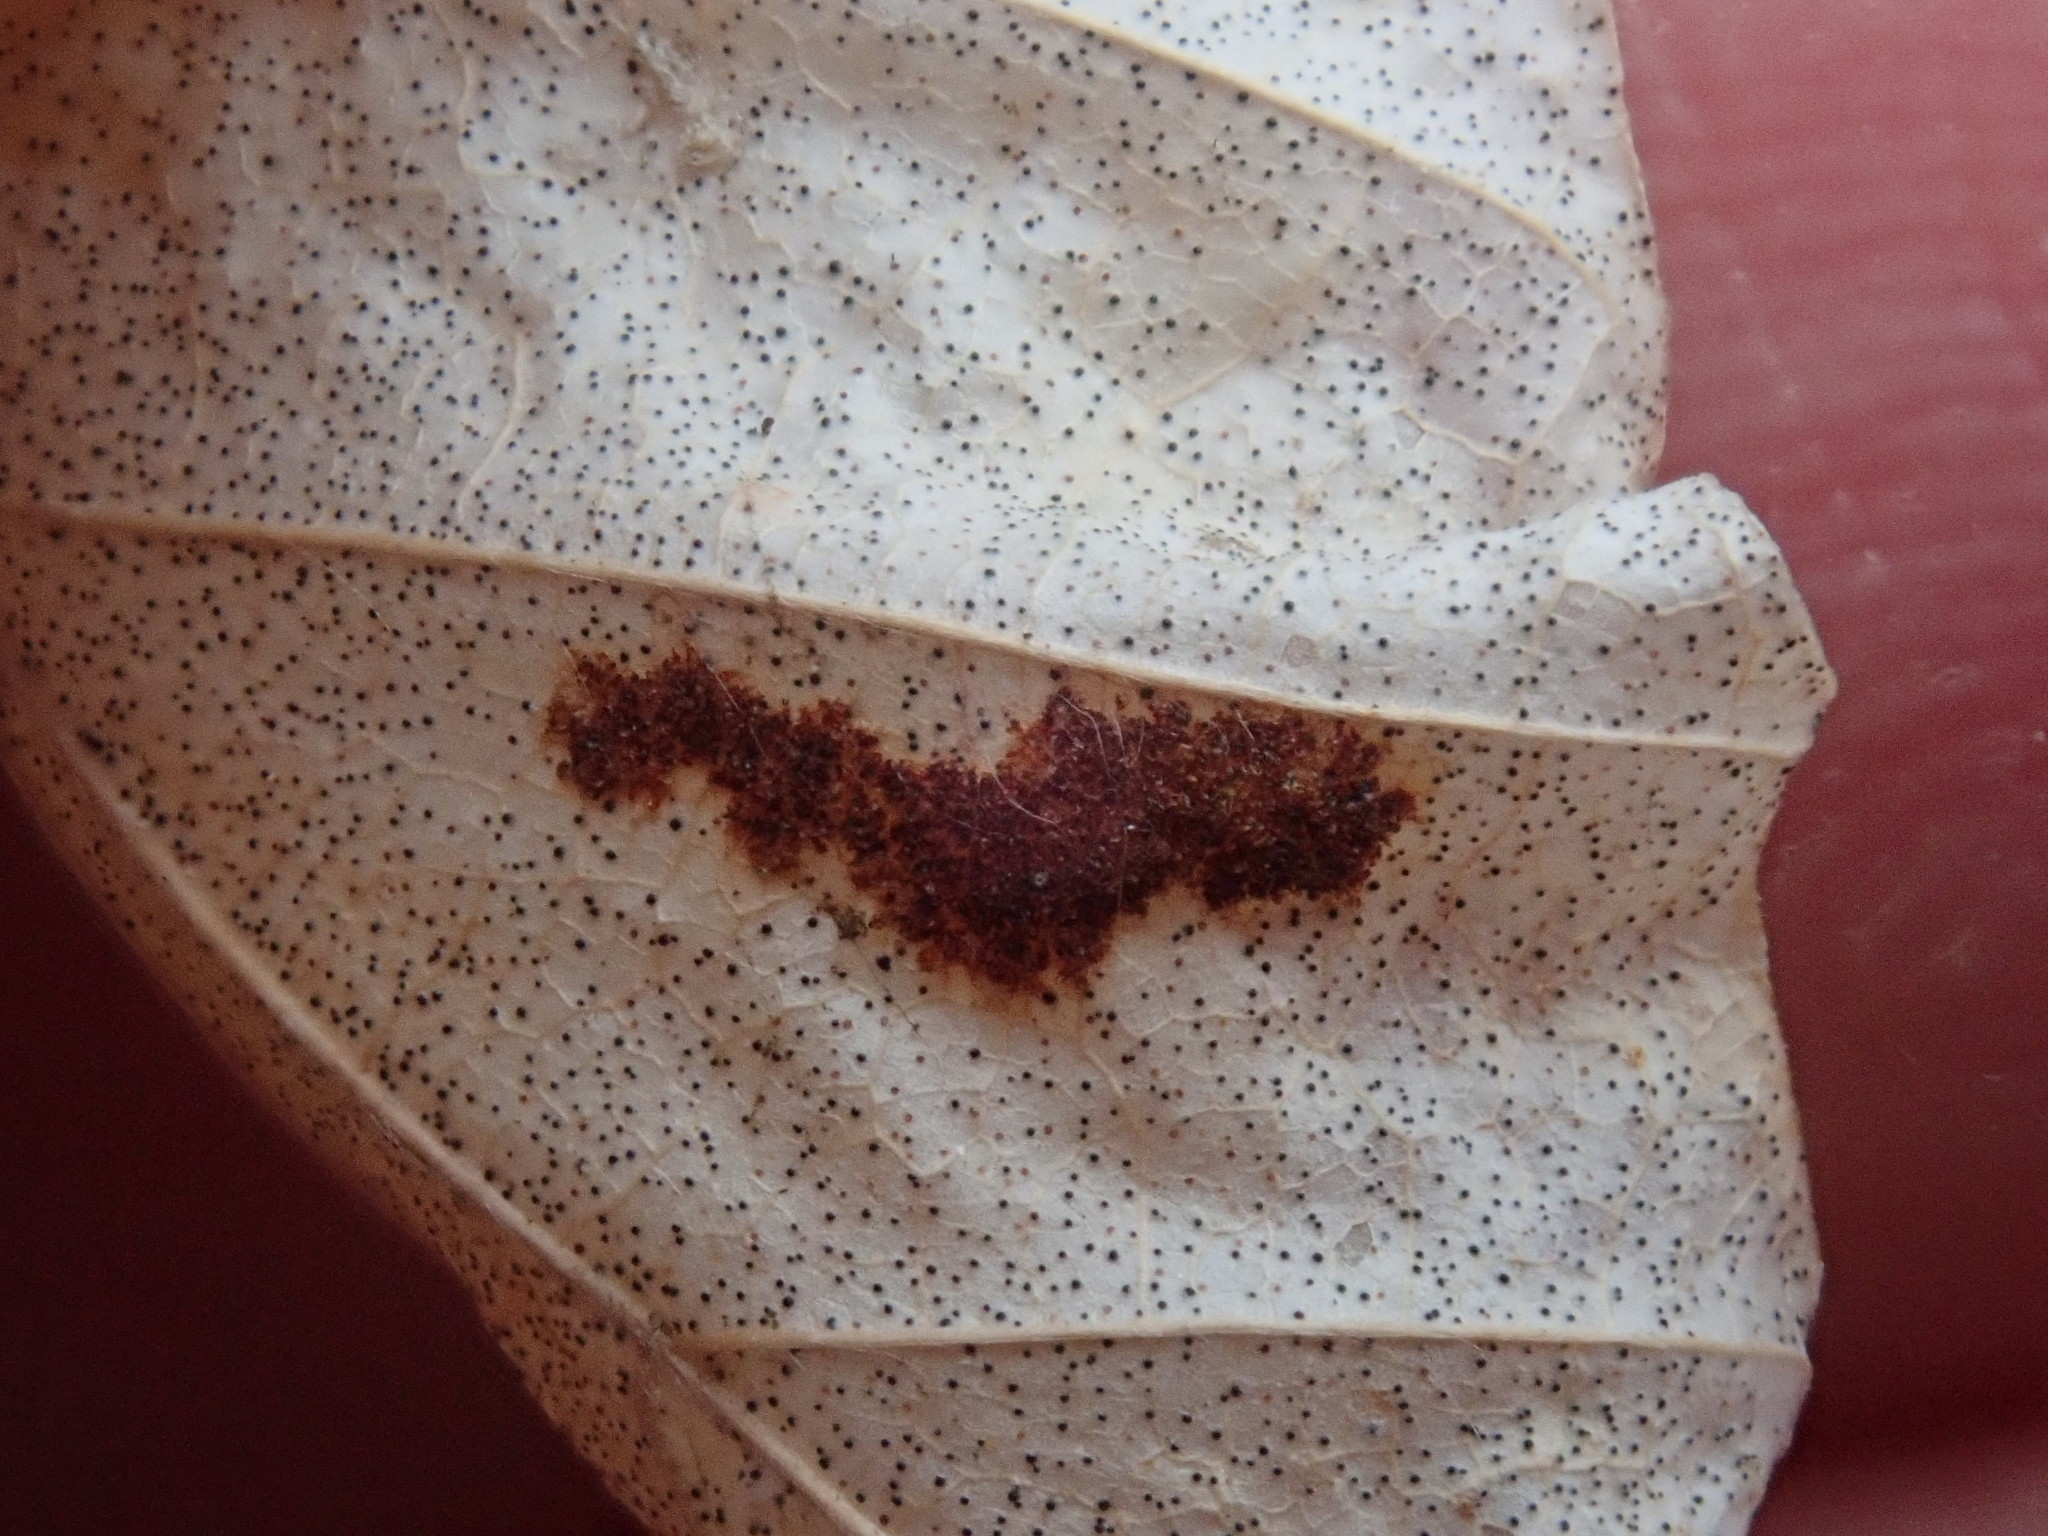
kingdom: Animalia
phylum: Arthropoda
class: Arachnida
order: Trombidiformes
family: Eriophyidae
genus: Acalitus
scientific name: Acalitus
